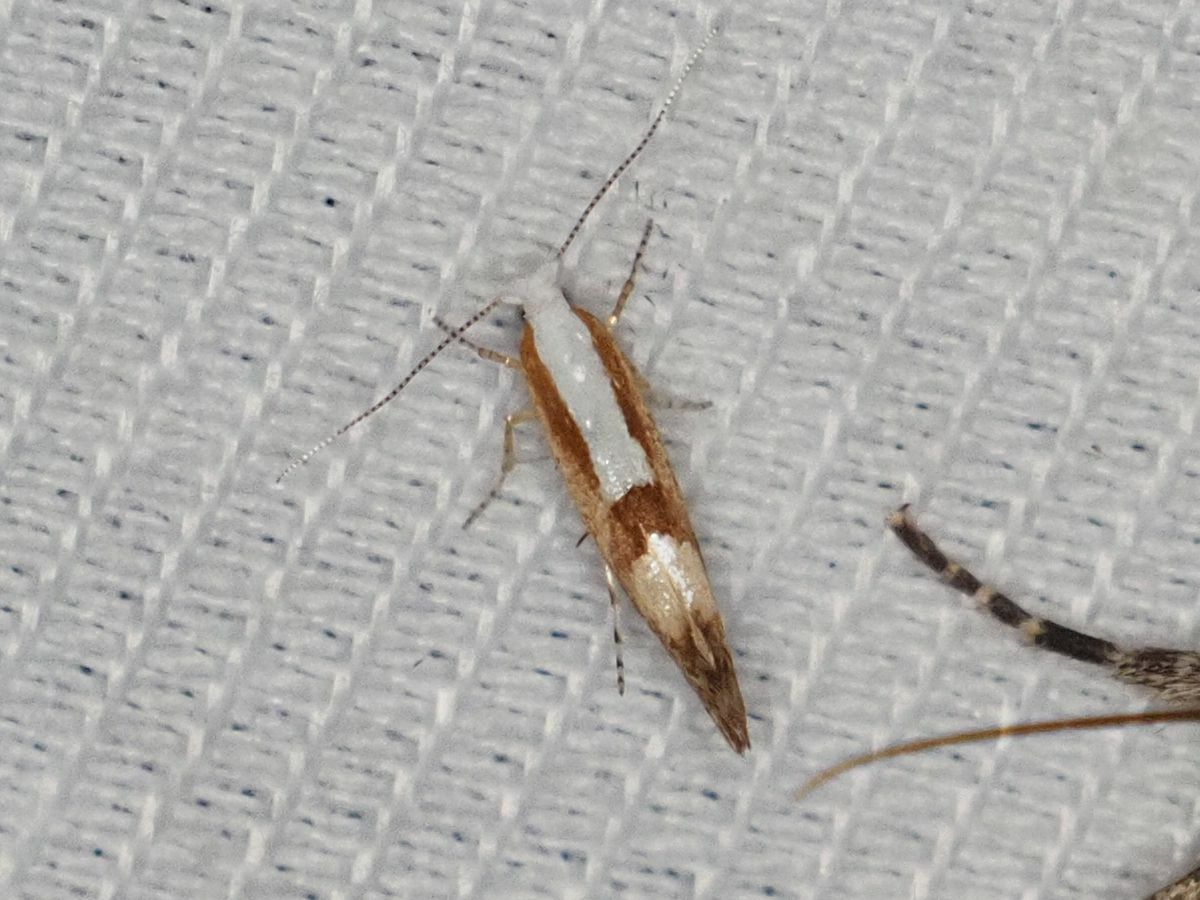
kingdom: Animalia
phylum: Arthropoda
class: Insecta
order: Lepidoptera
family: Argyresthiidae
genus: Argyresthia
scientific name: Argyresthia pruniella
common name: Cherry fruit moth
